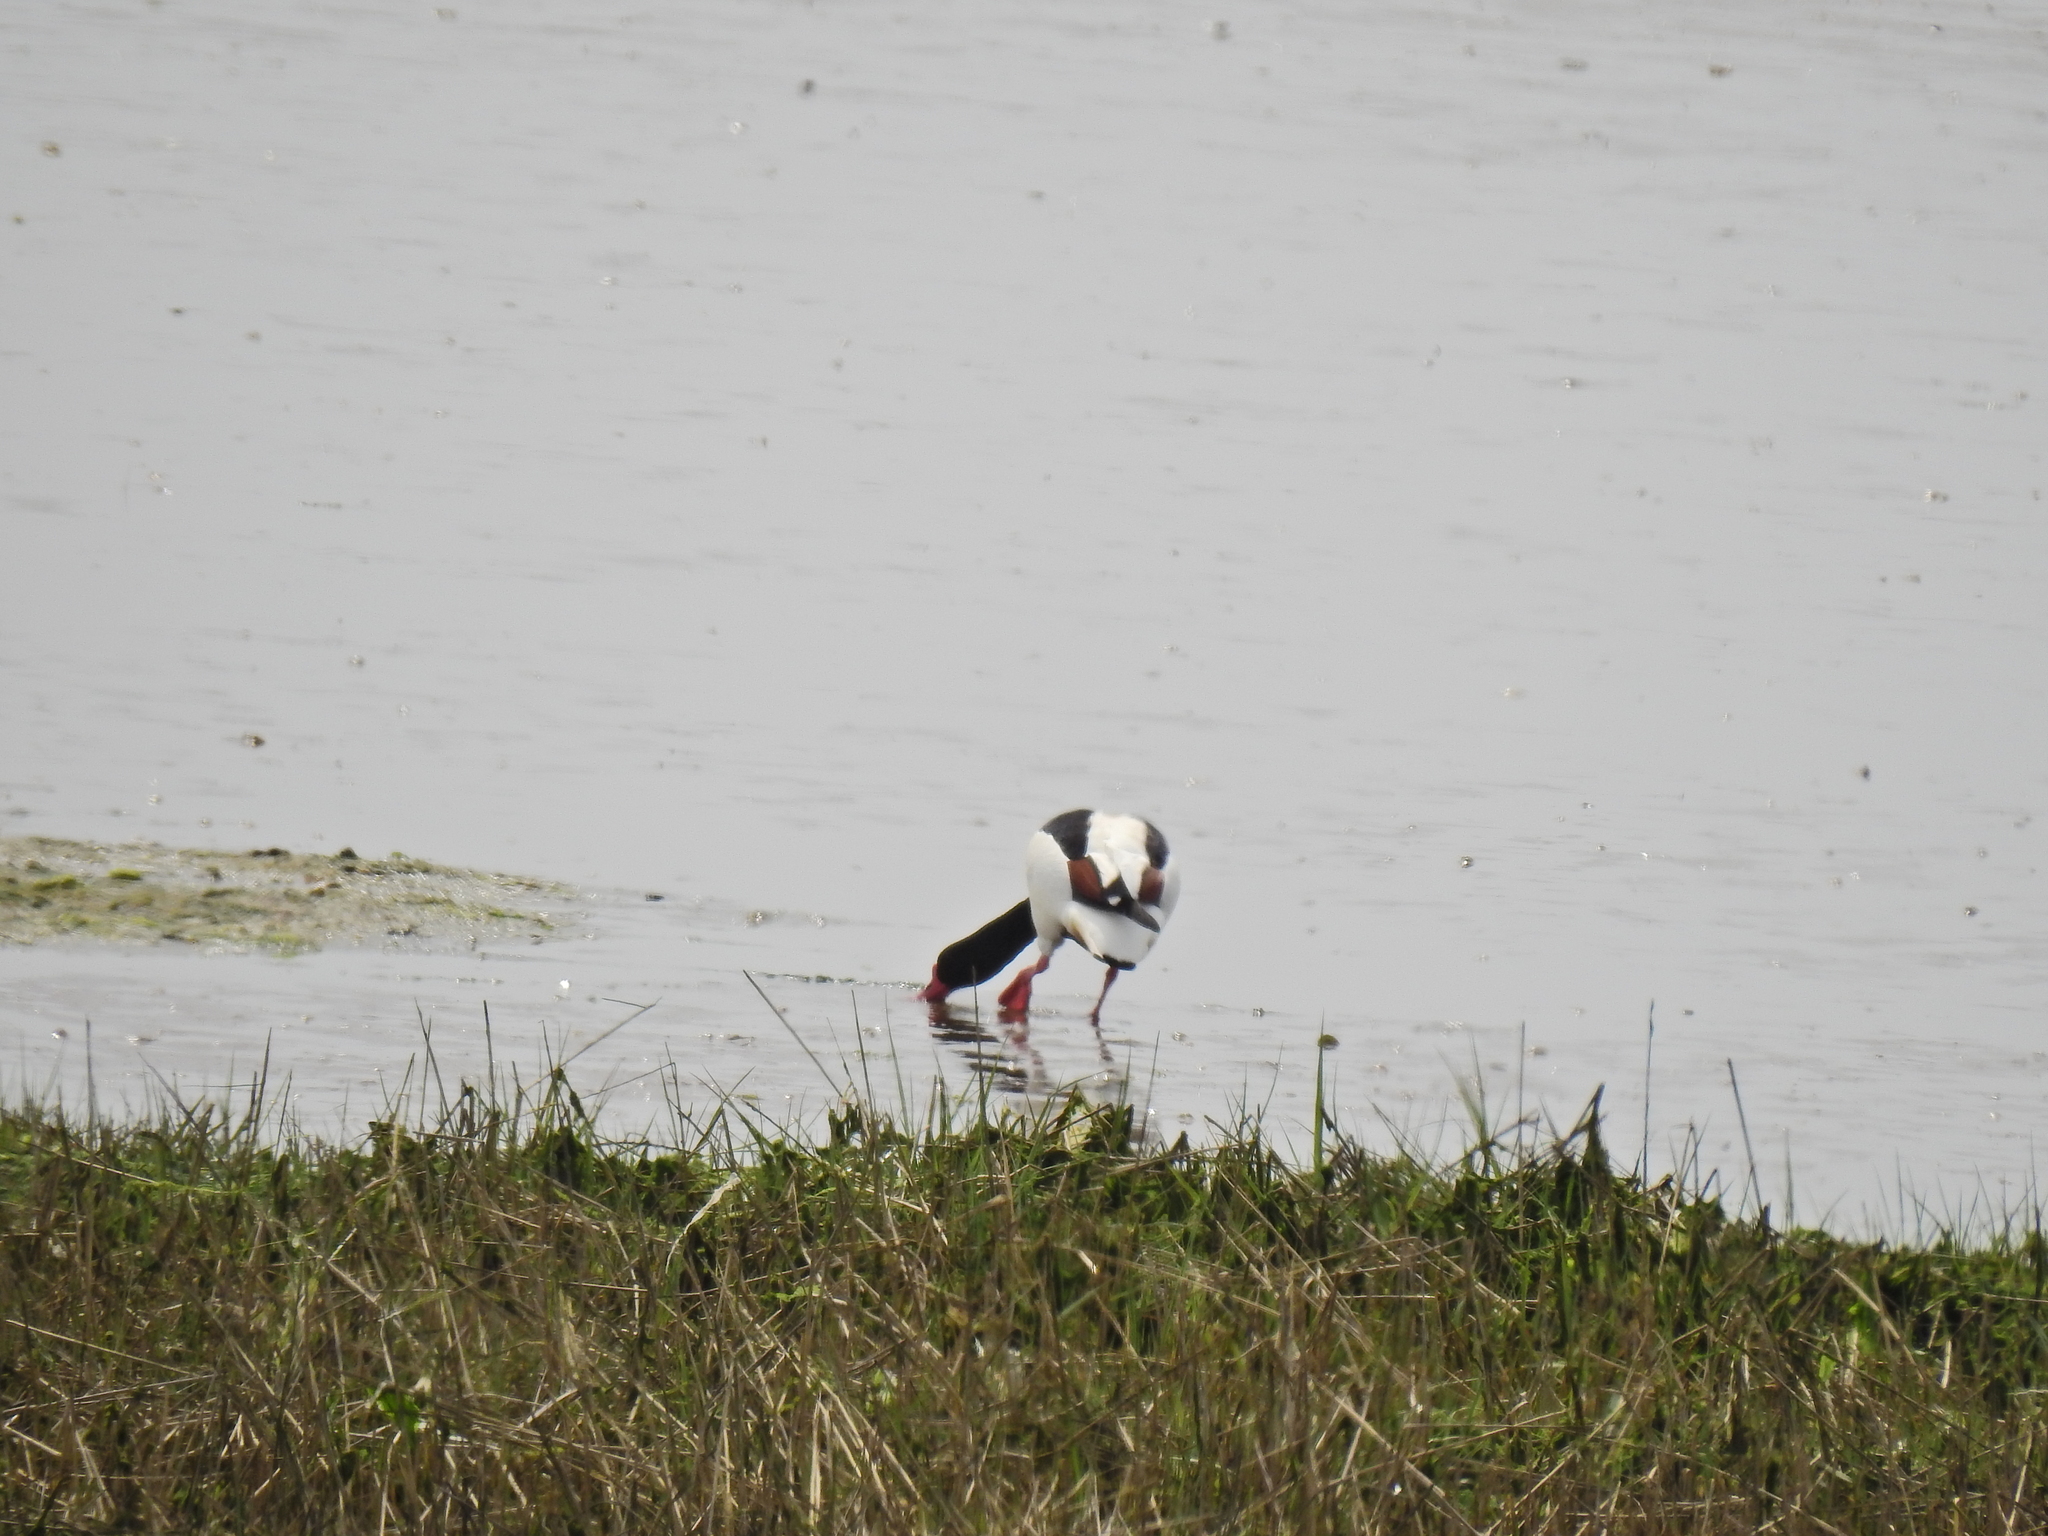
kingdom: Animalia
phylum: Chordata
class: Aves
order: Anseriformes
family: Anatidae
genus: Tadorna
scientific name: Tadorna tadorna
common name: Common shelduck
